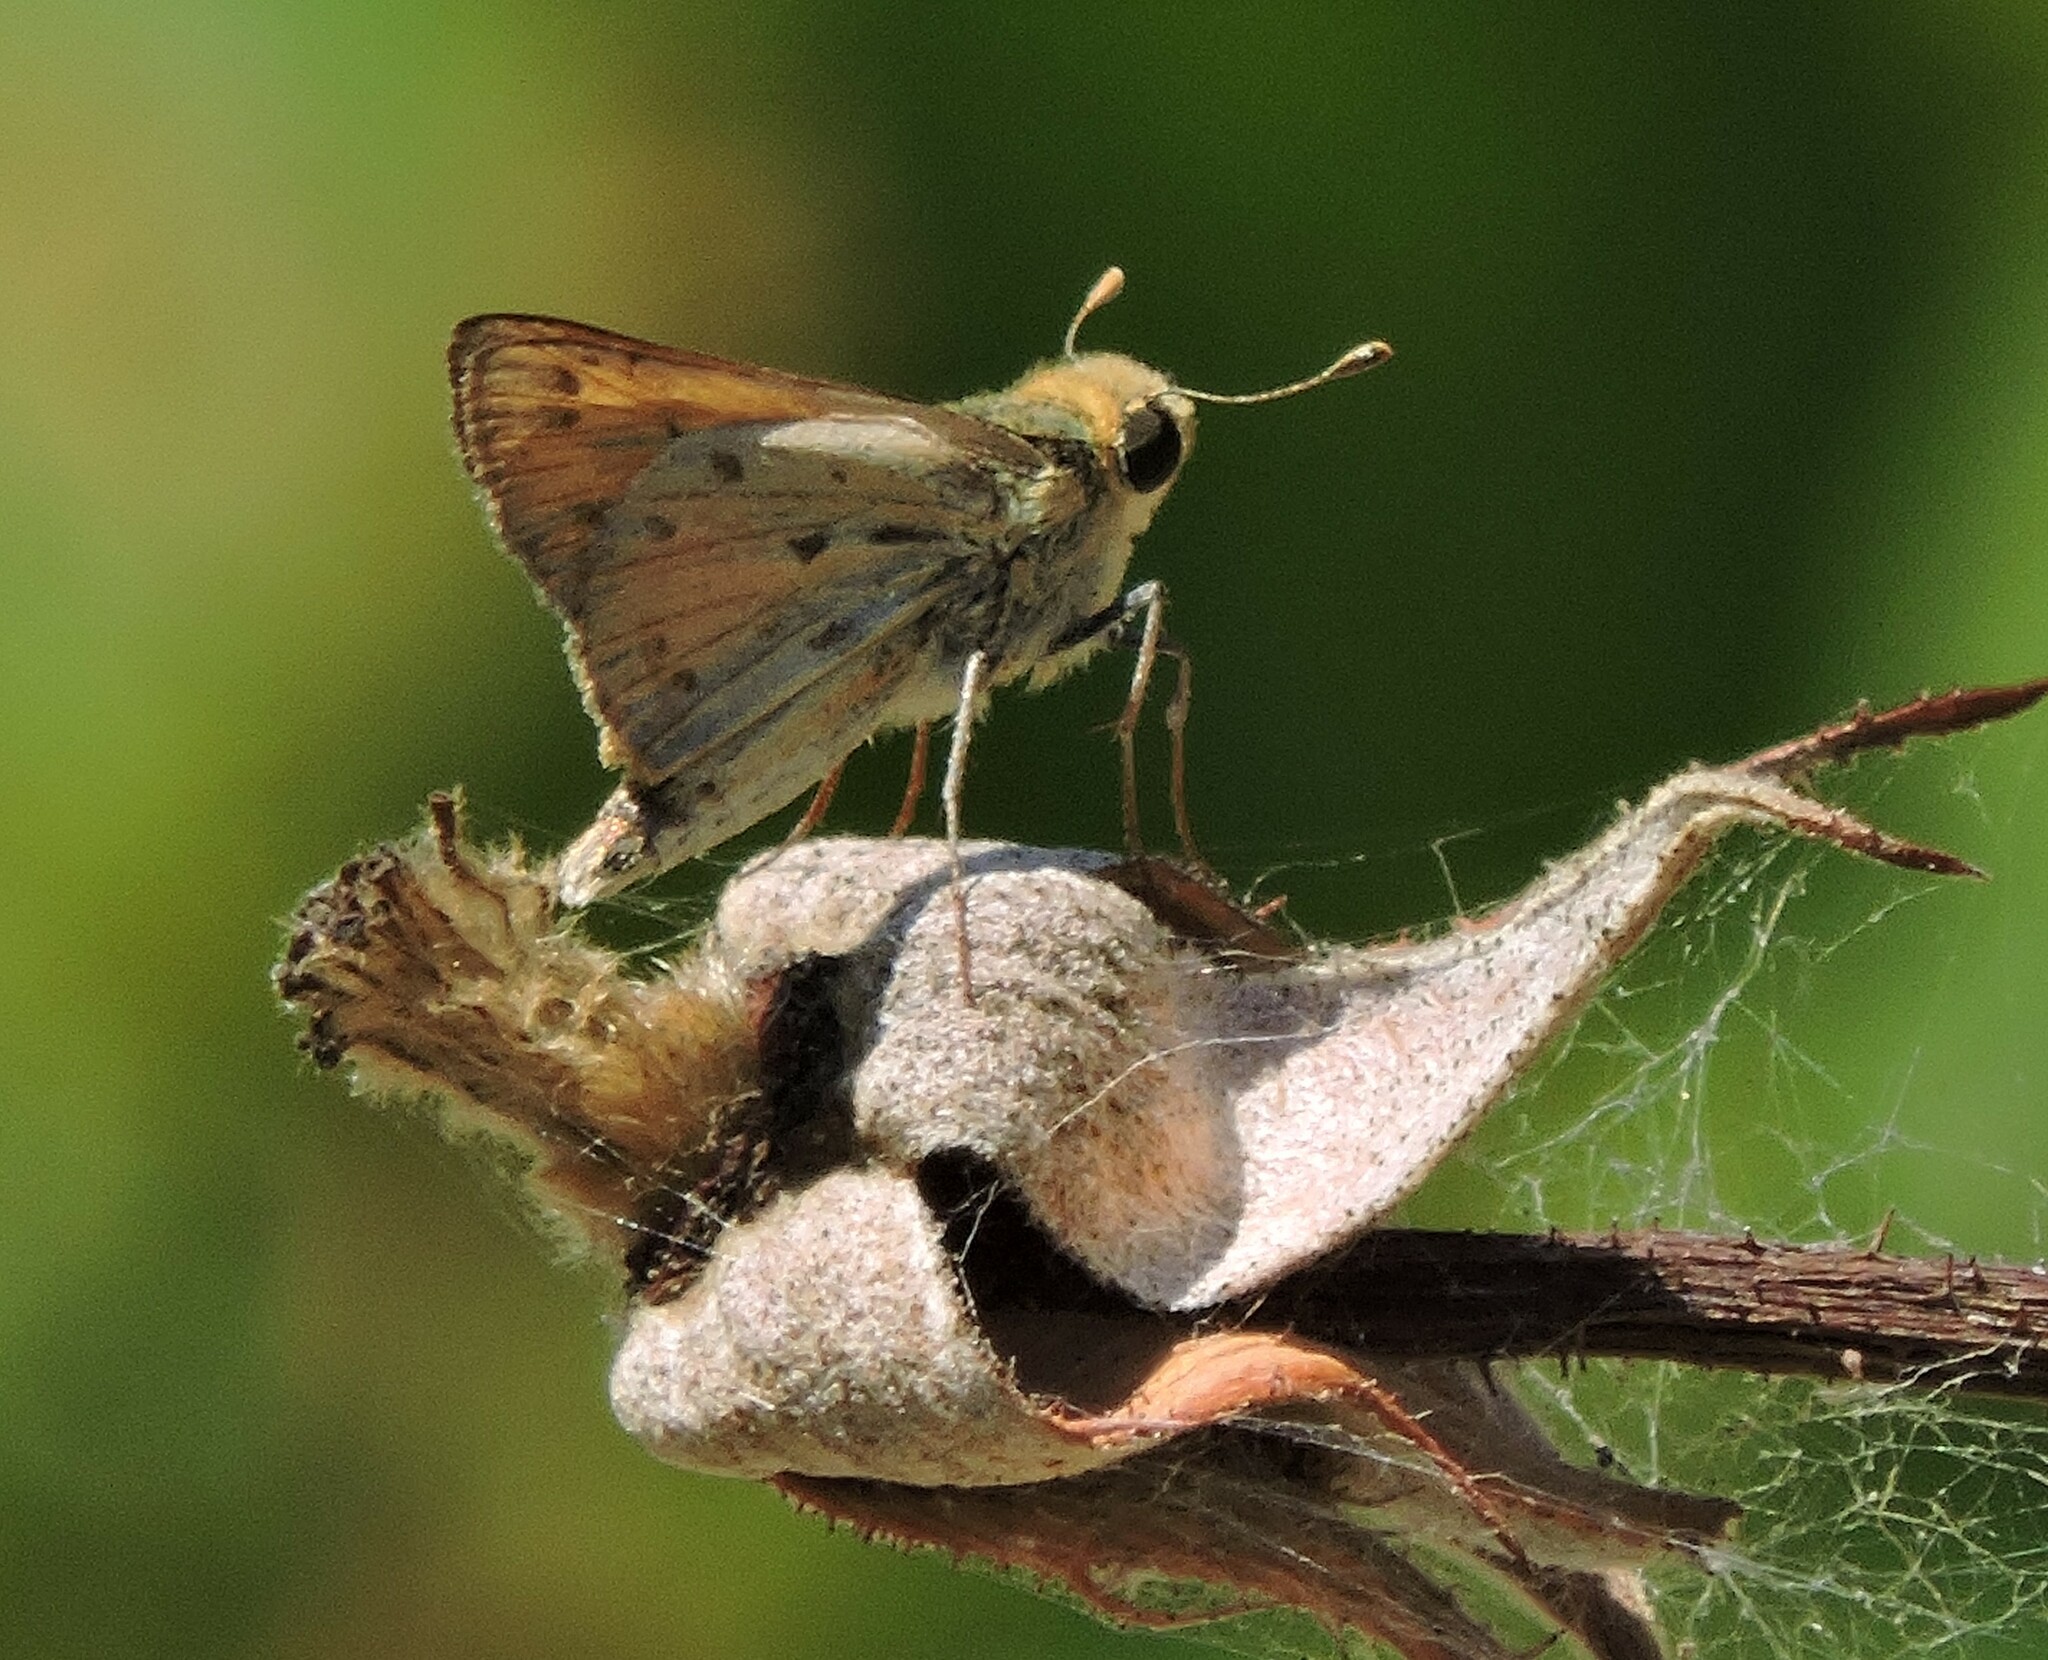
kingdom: Animalia
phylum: Arthropoda
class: Insecta
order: Lepidoptera
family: Hesperiidae
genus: Hylephila
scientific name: Hylephila phyleus
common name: Fiery skipper
